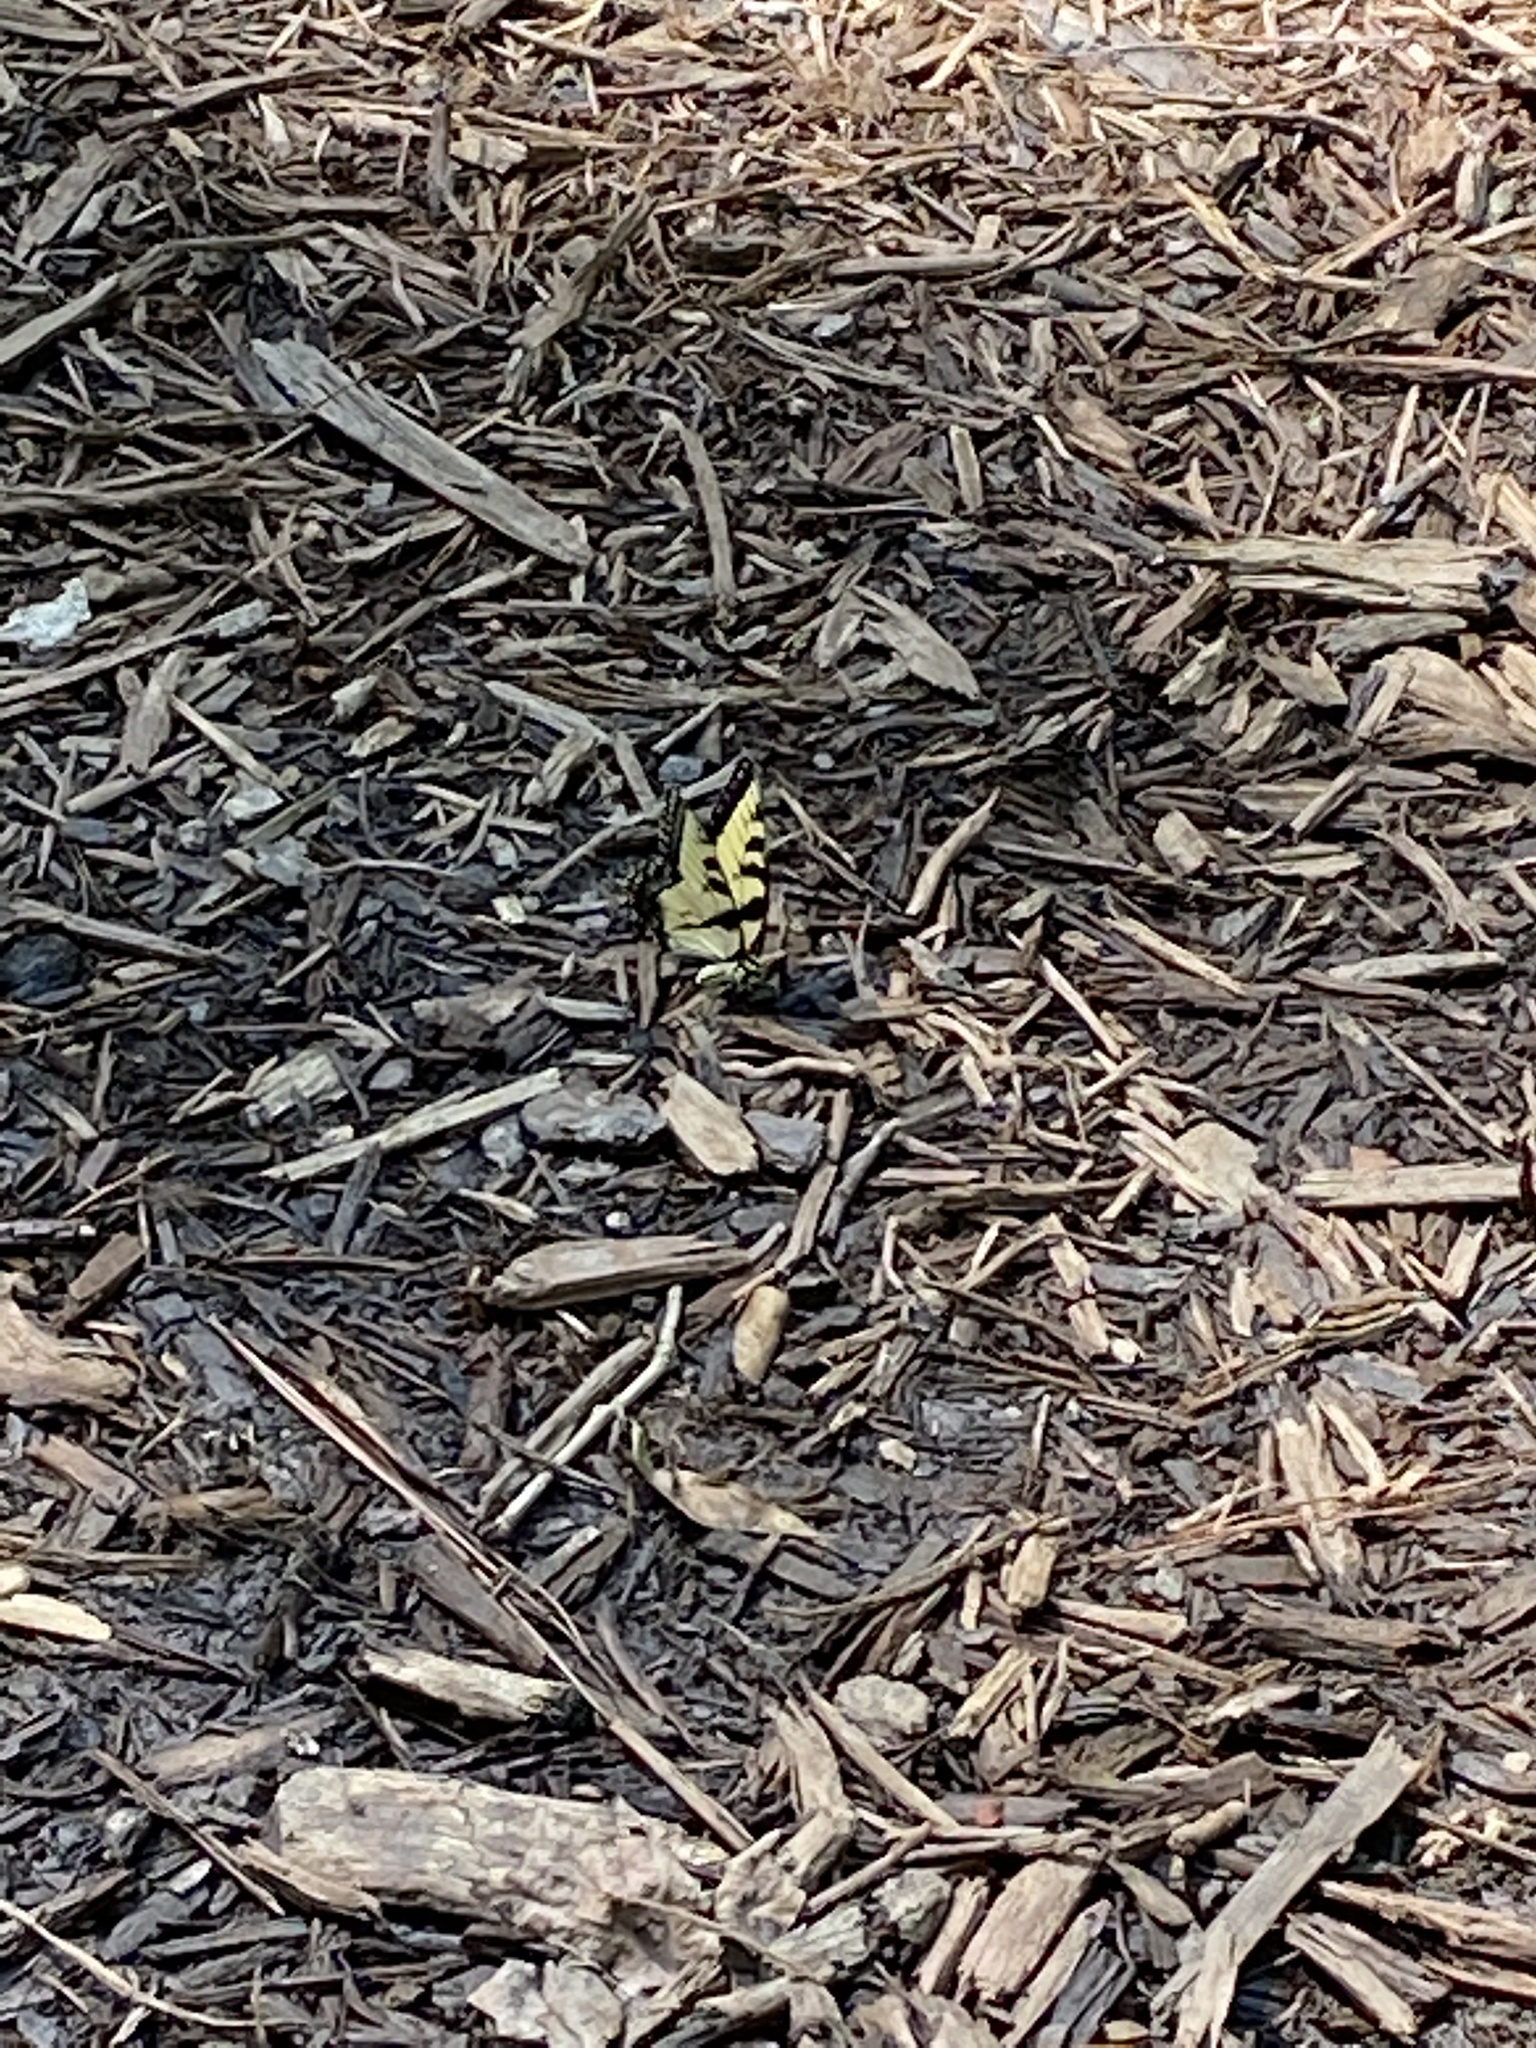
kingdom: Animalia
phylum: Arthropoda
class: Insecta
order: Lepidoptera
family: Papilionidae
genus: Papilio
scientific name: Papilio glaucus
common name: Tiger swallowtail
